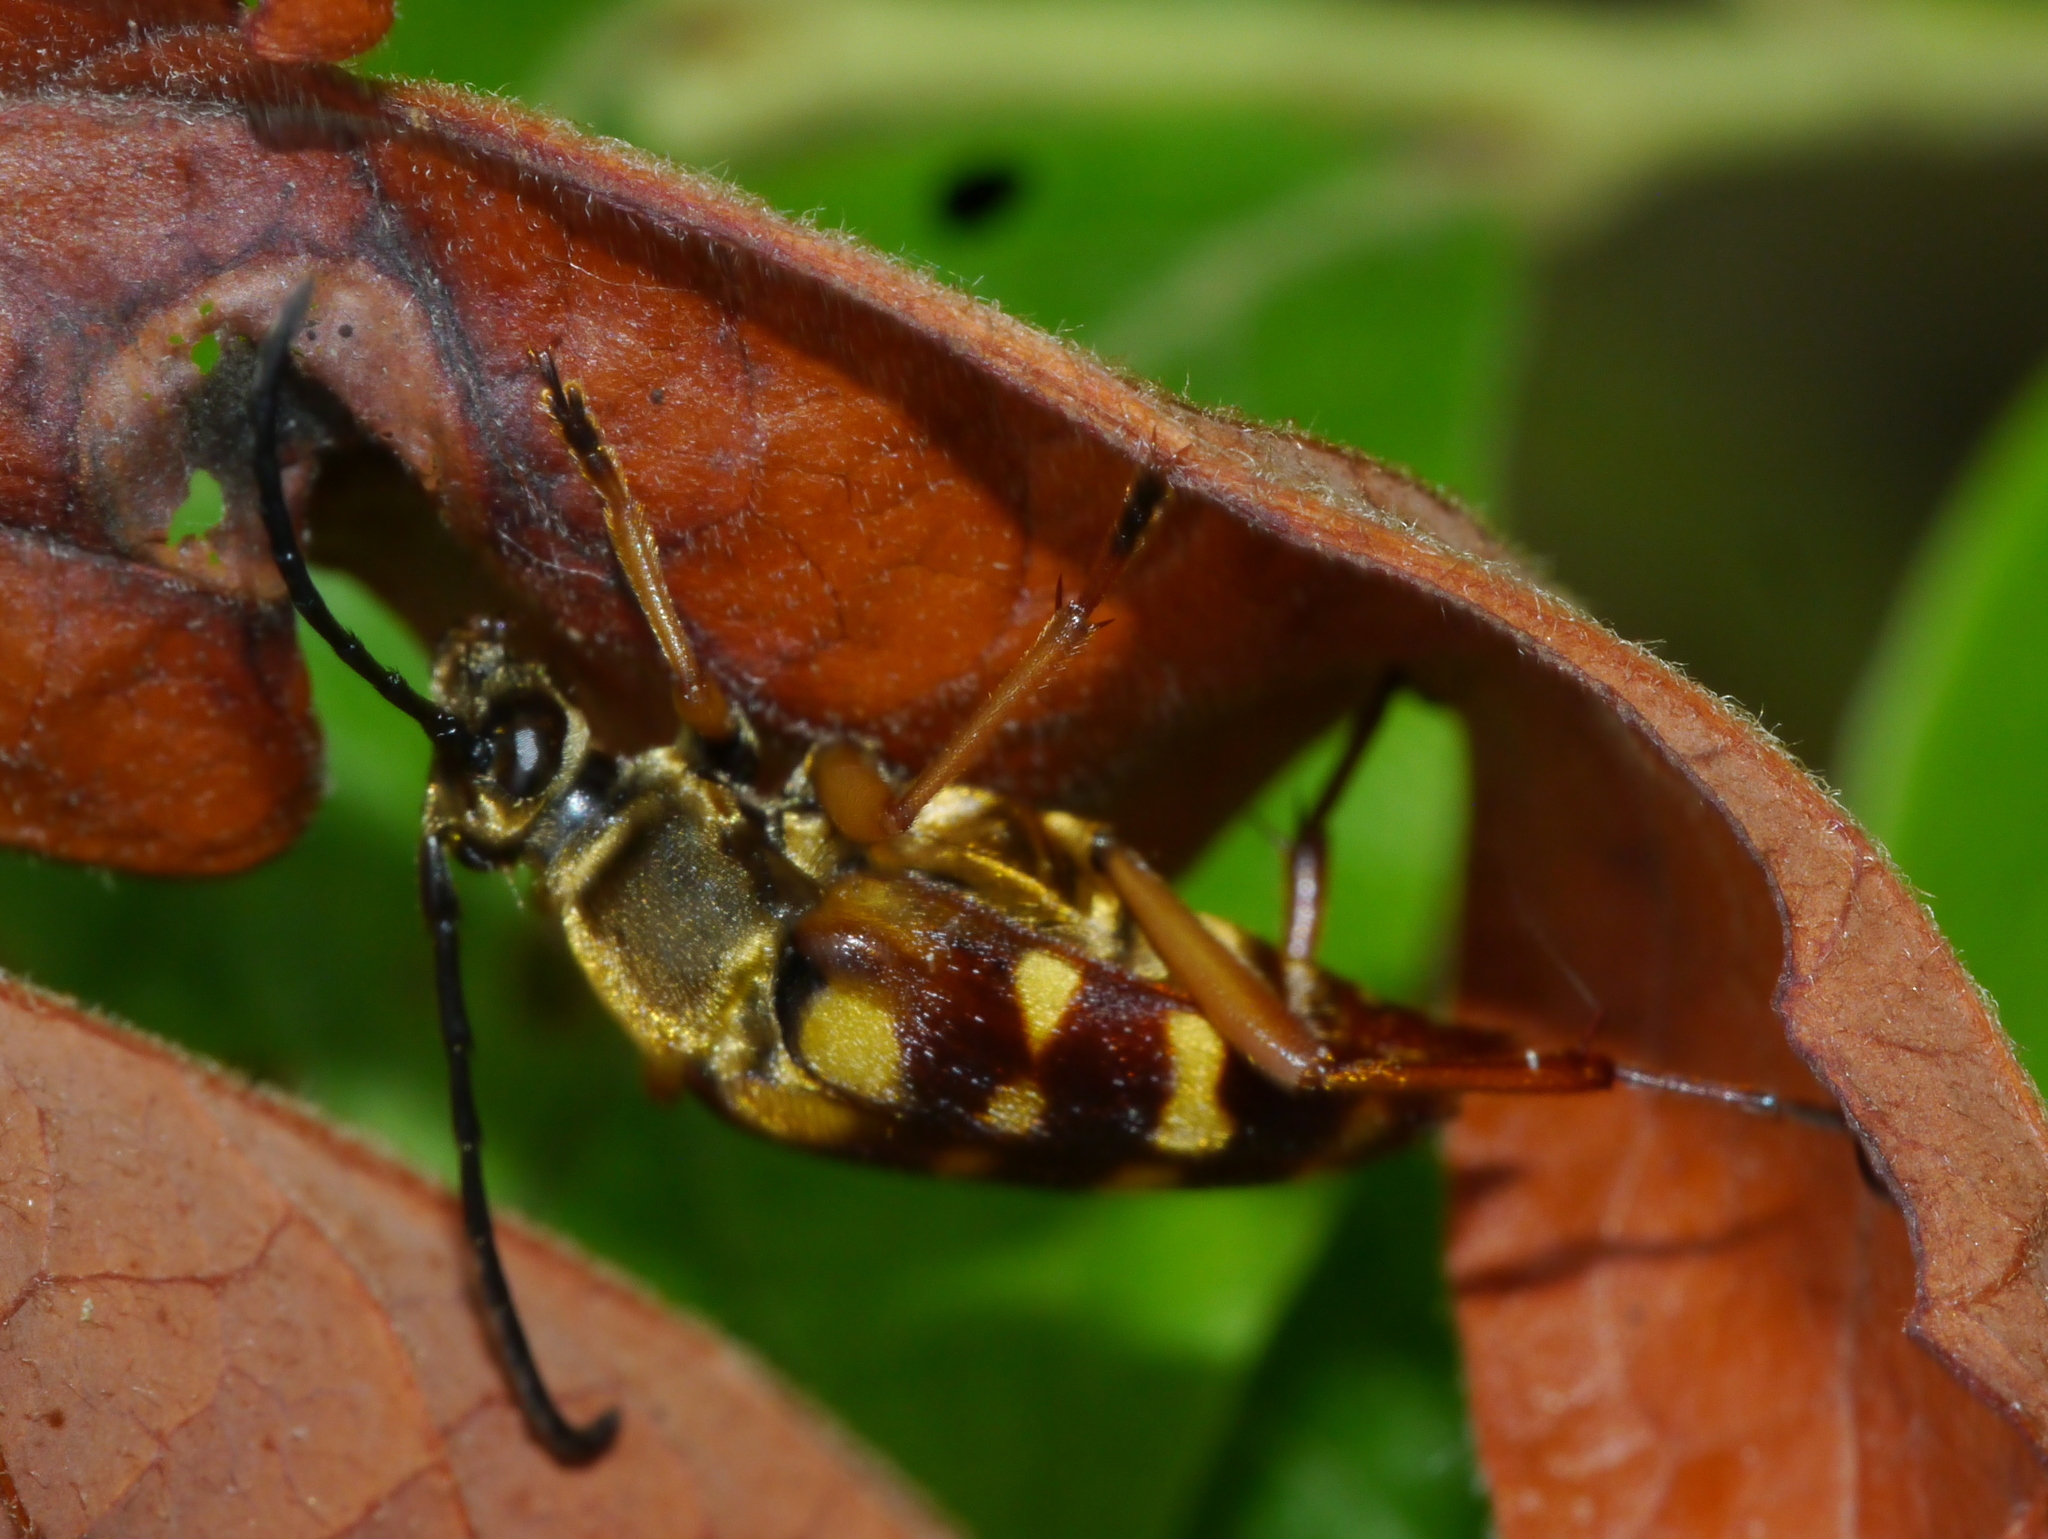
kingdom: Animalia
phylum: Arthropoda
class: Insecta
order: Coleoptera
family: Cerambycidae
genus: Typocerus
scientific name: Typocerus velutinus
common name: Banded longhorn beetle
